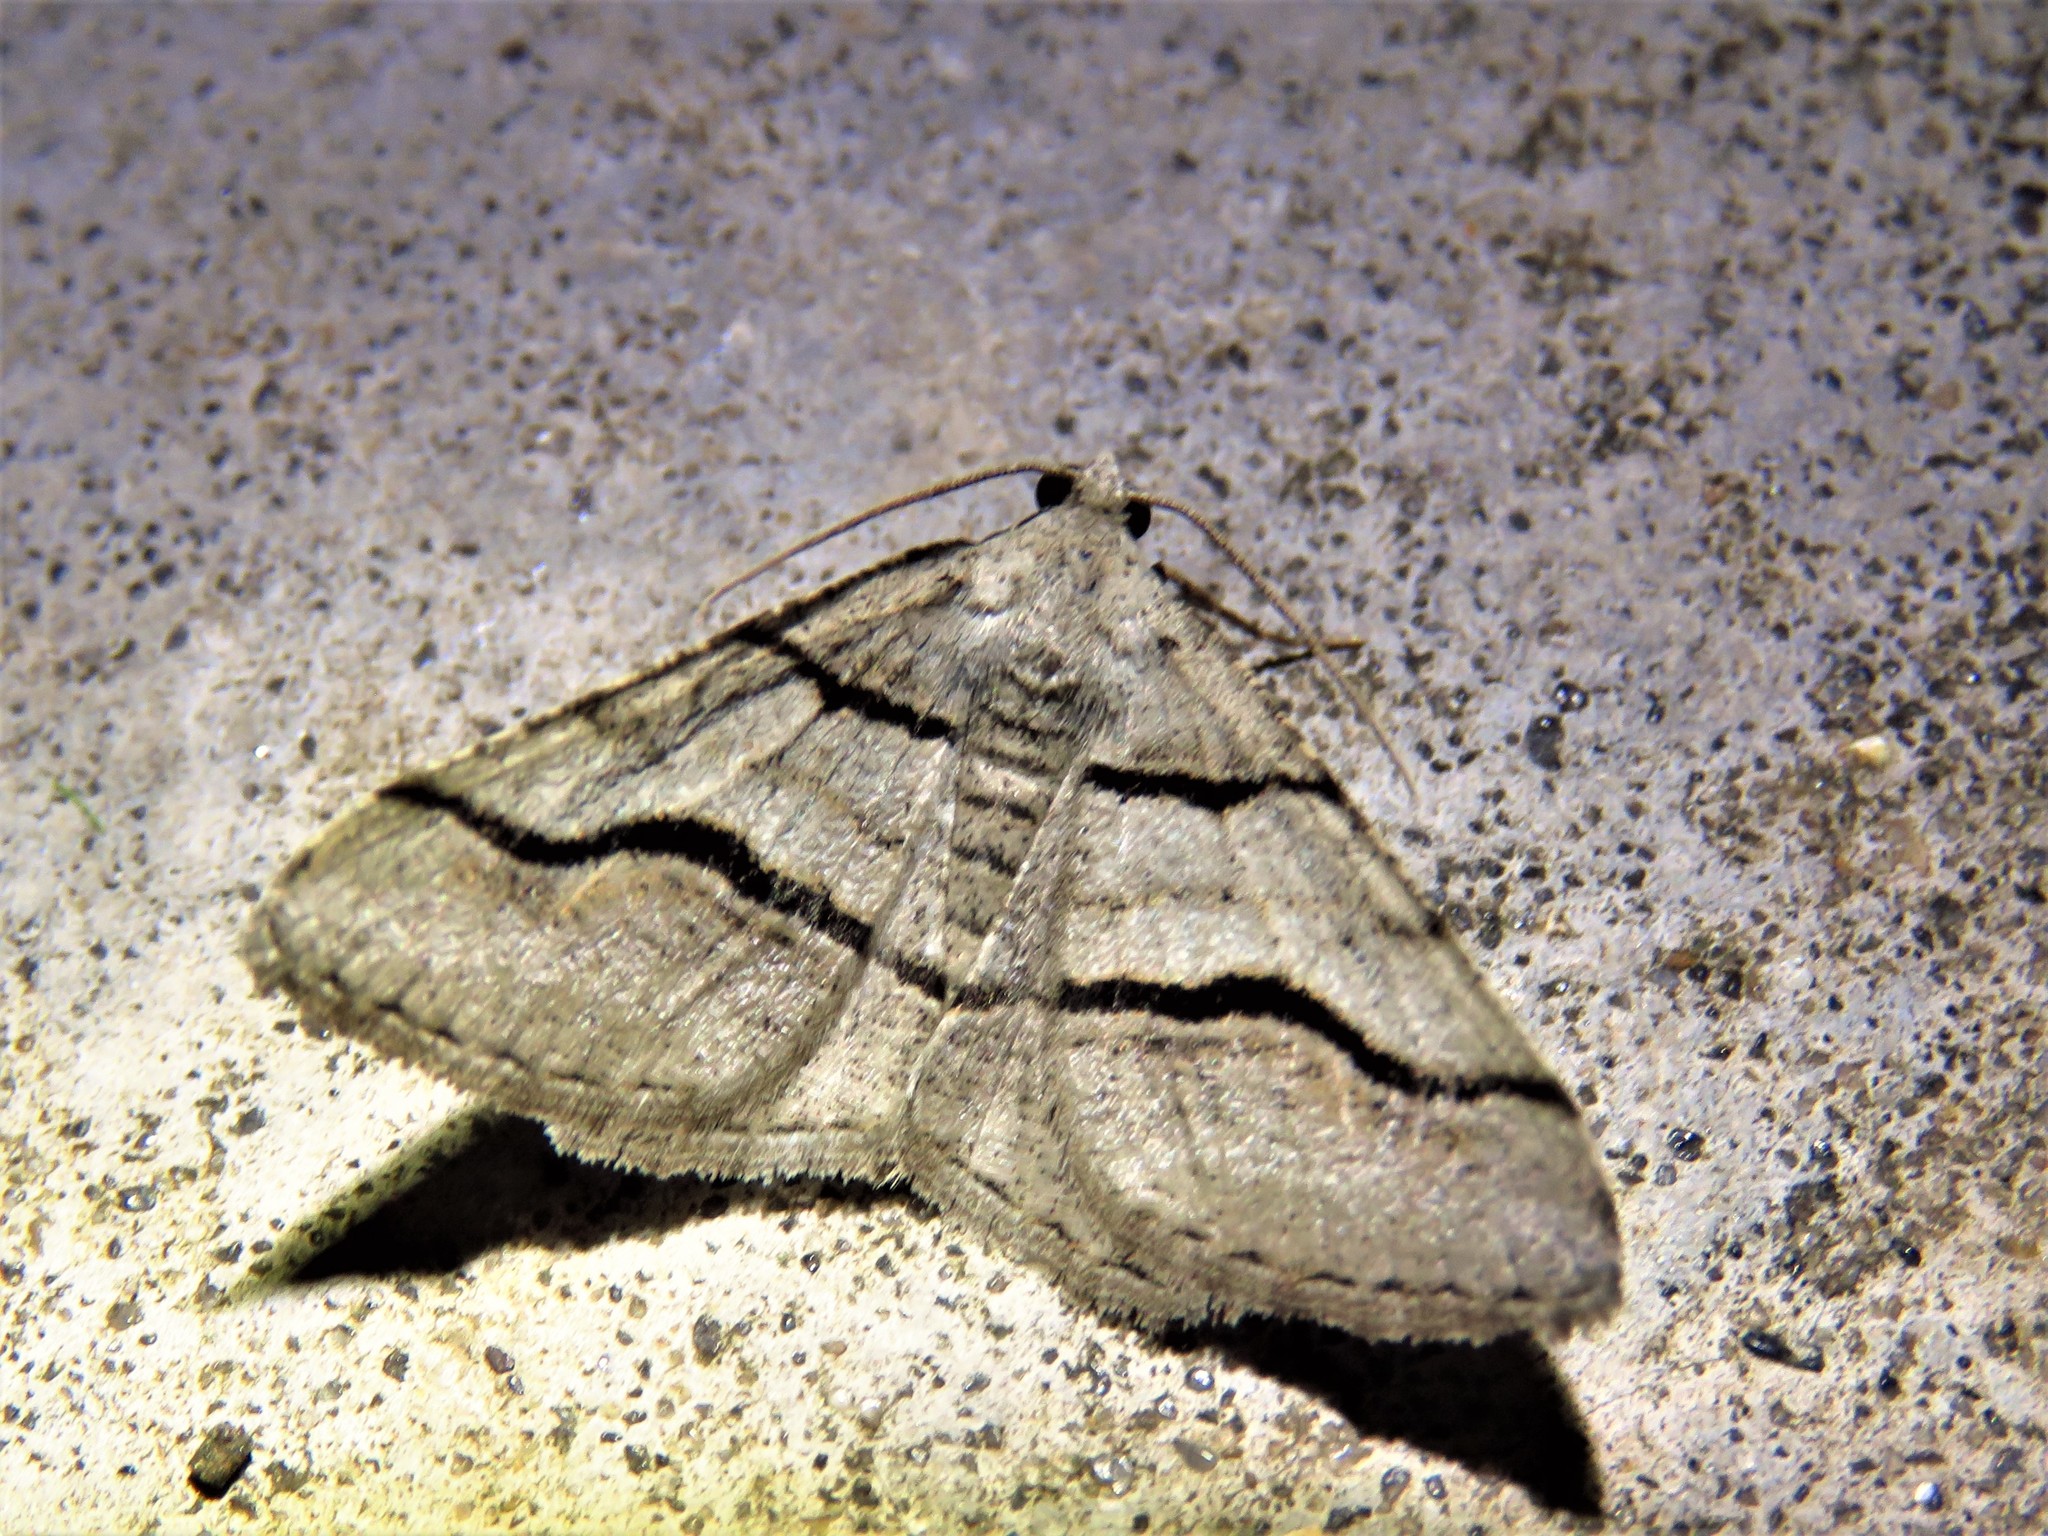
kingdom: Animalia
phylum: Arthropoda
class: Insecta
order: Lepidoptera
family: Geometridae
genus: Digrammia
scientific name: Digrammia continuata
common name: Curve-lined angle
